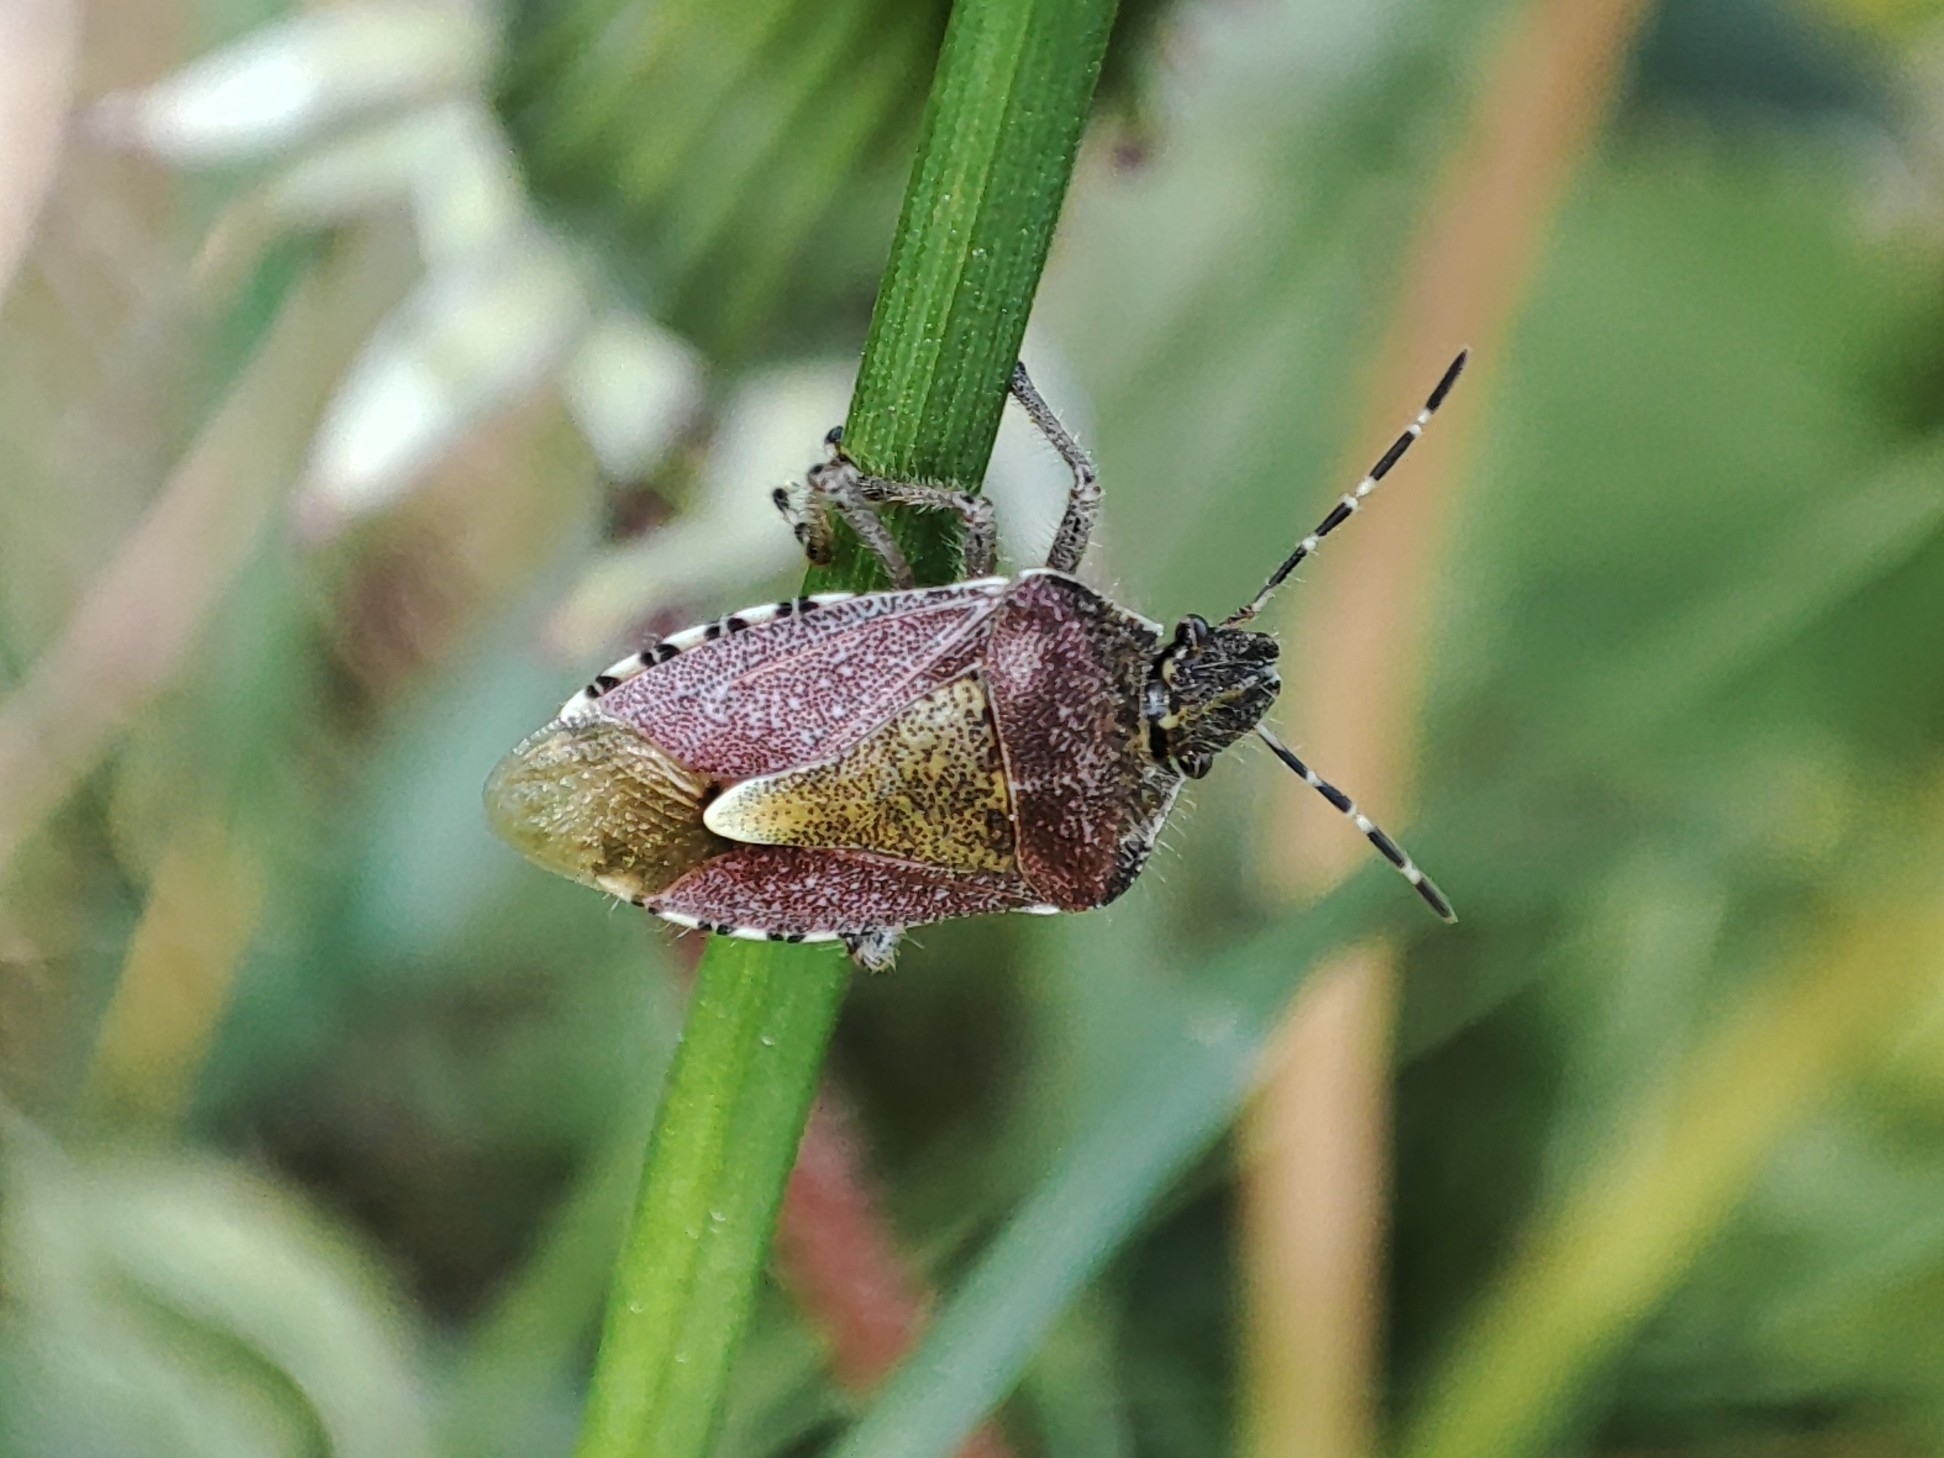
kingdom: Animalia
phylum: Arthropoda
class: Insecta
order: Hemiptera
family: Pentatomidae
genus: Dolycoris
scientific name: Dolycoris baccarum
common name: Sloe bug
